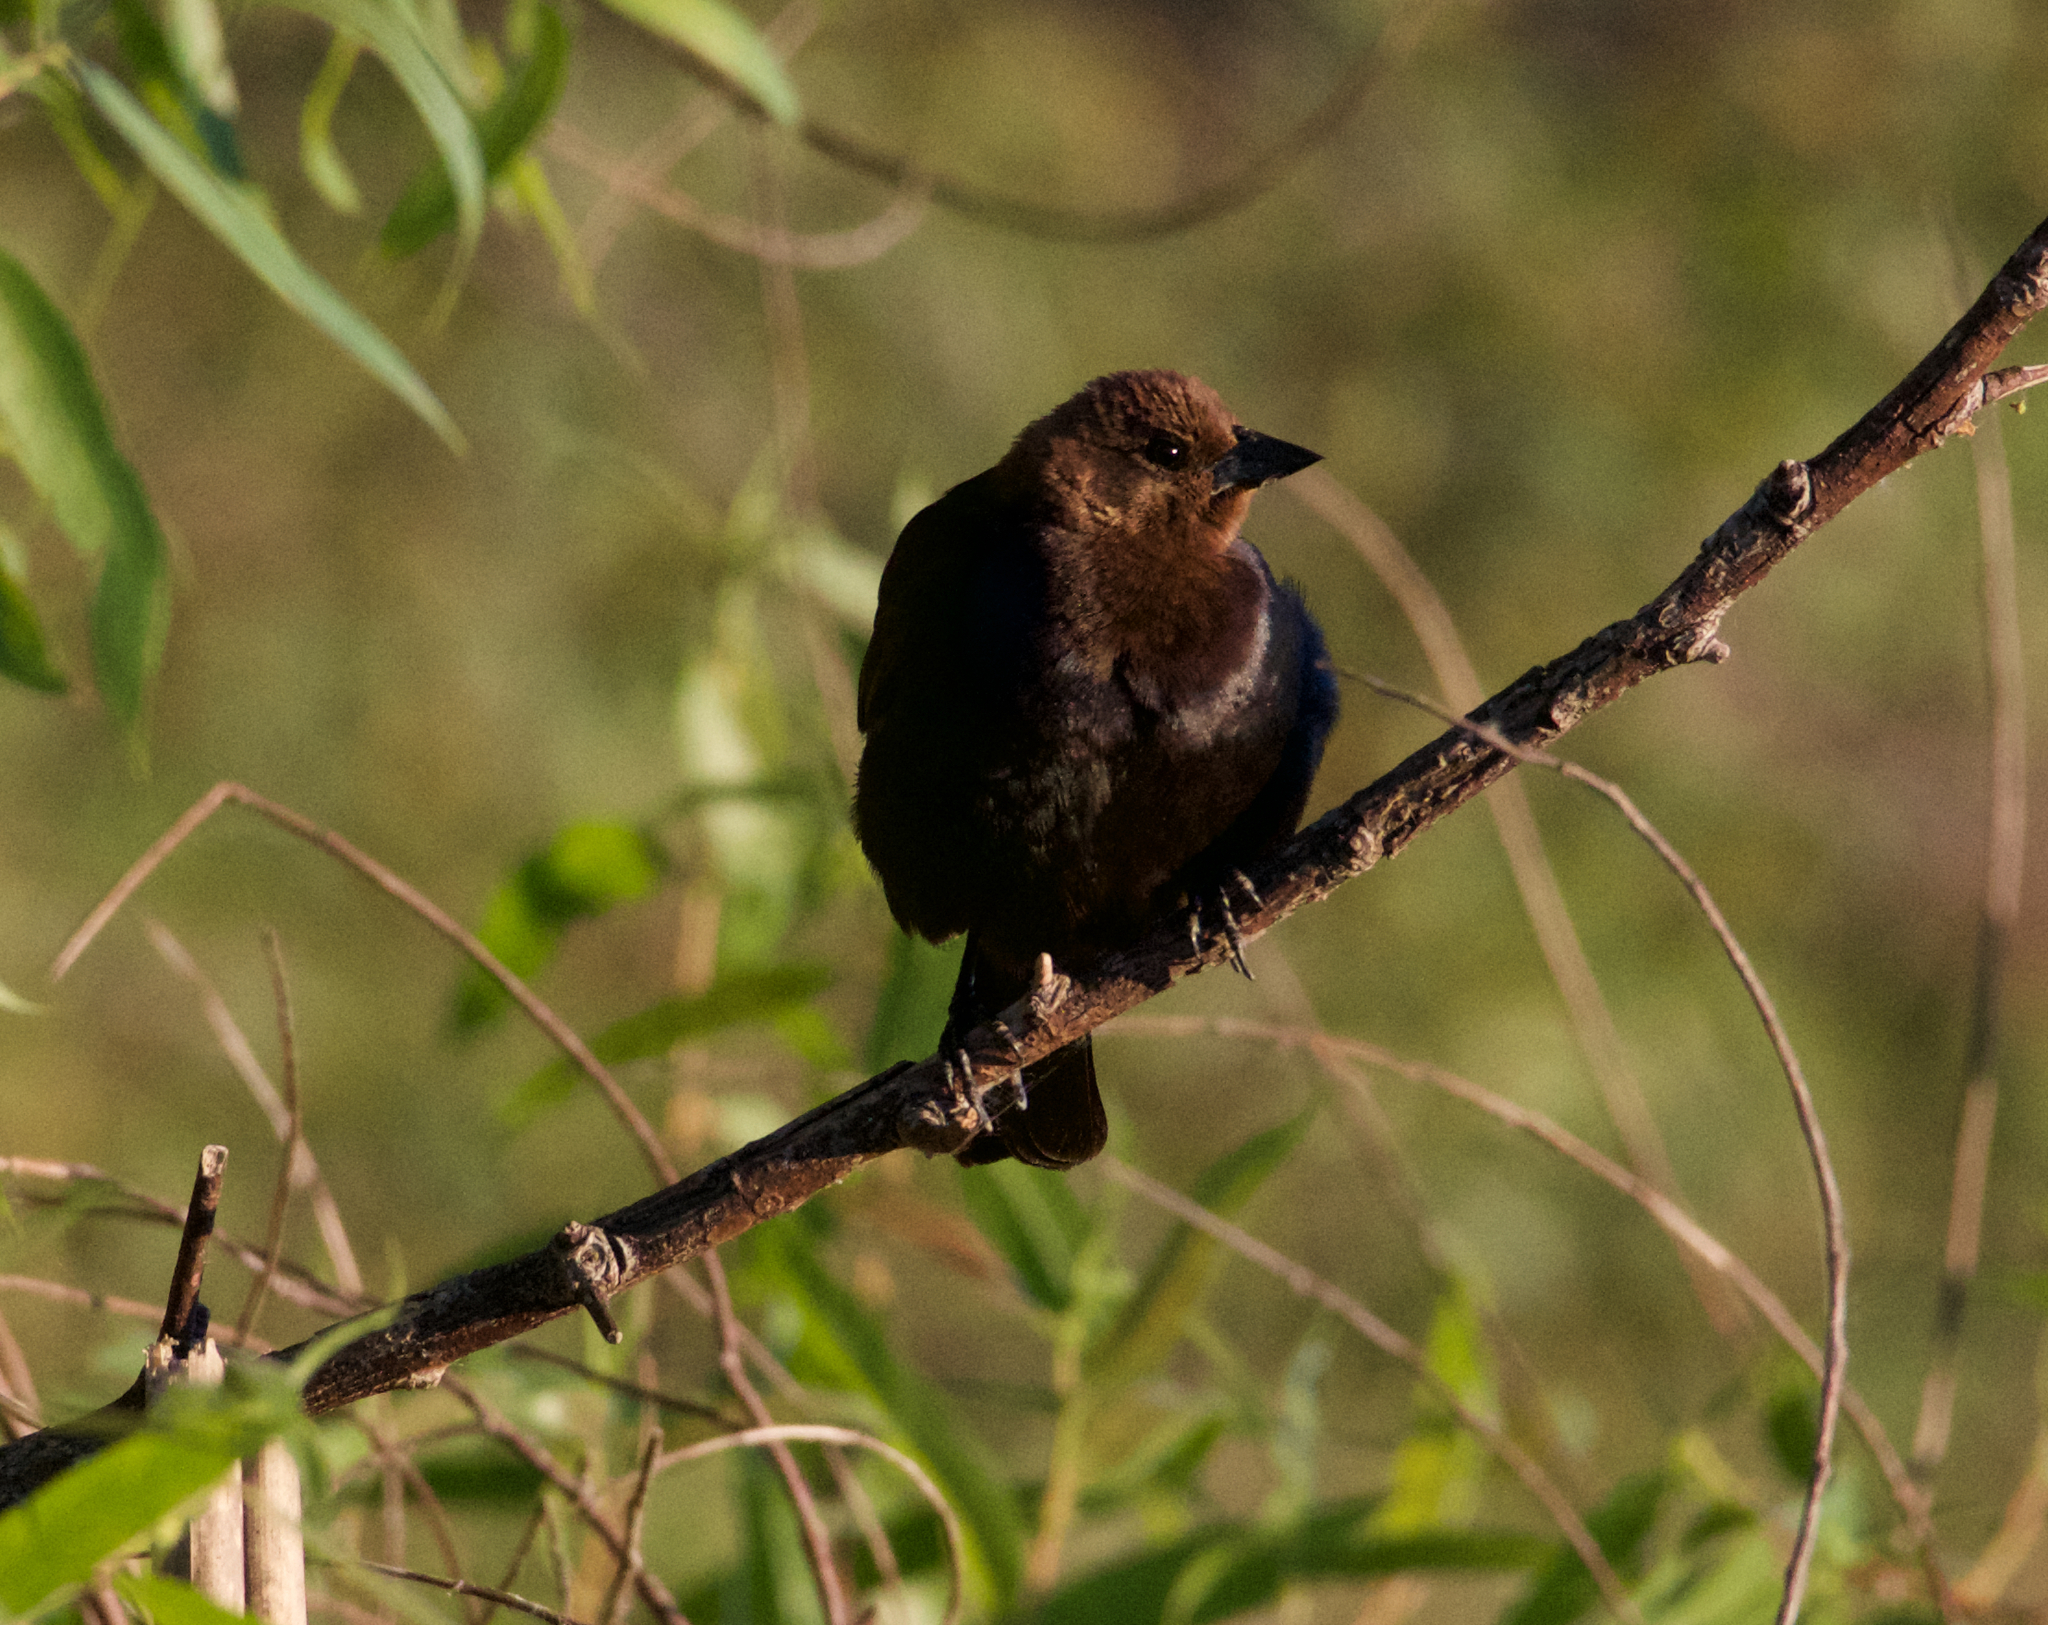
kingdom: Animalia
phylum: Chordata
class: Aves
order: Passeriformes
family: Icteridae
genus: Molothrus
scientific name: Molothrus ater
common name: Brown-headed cowbird
